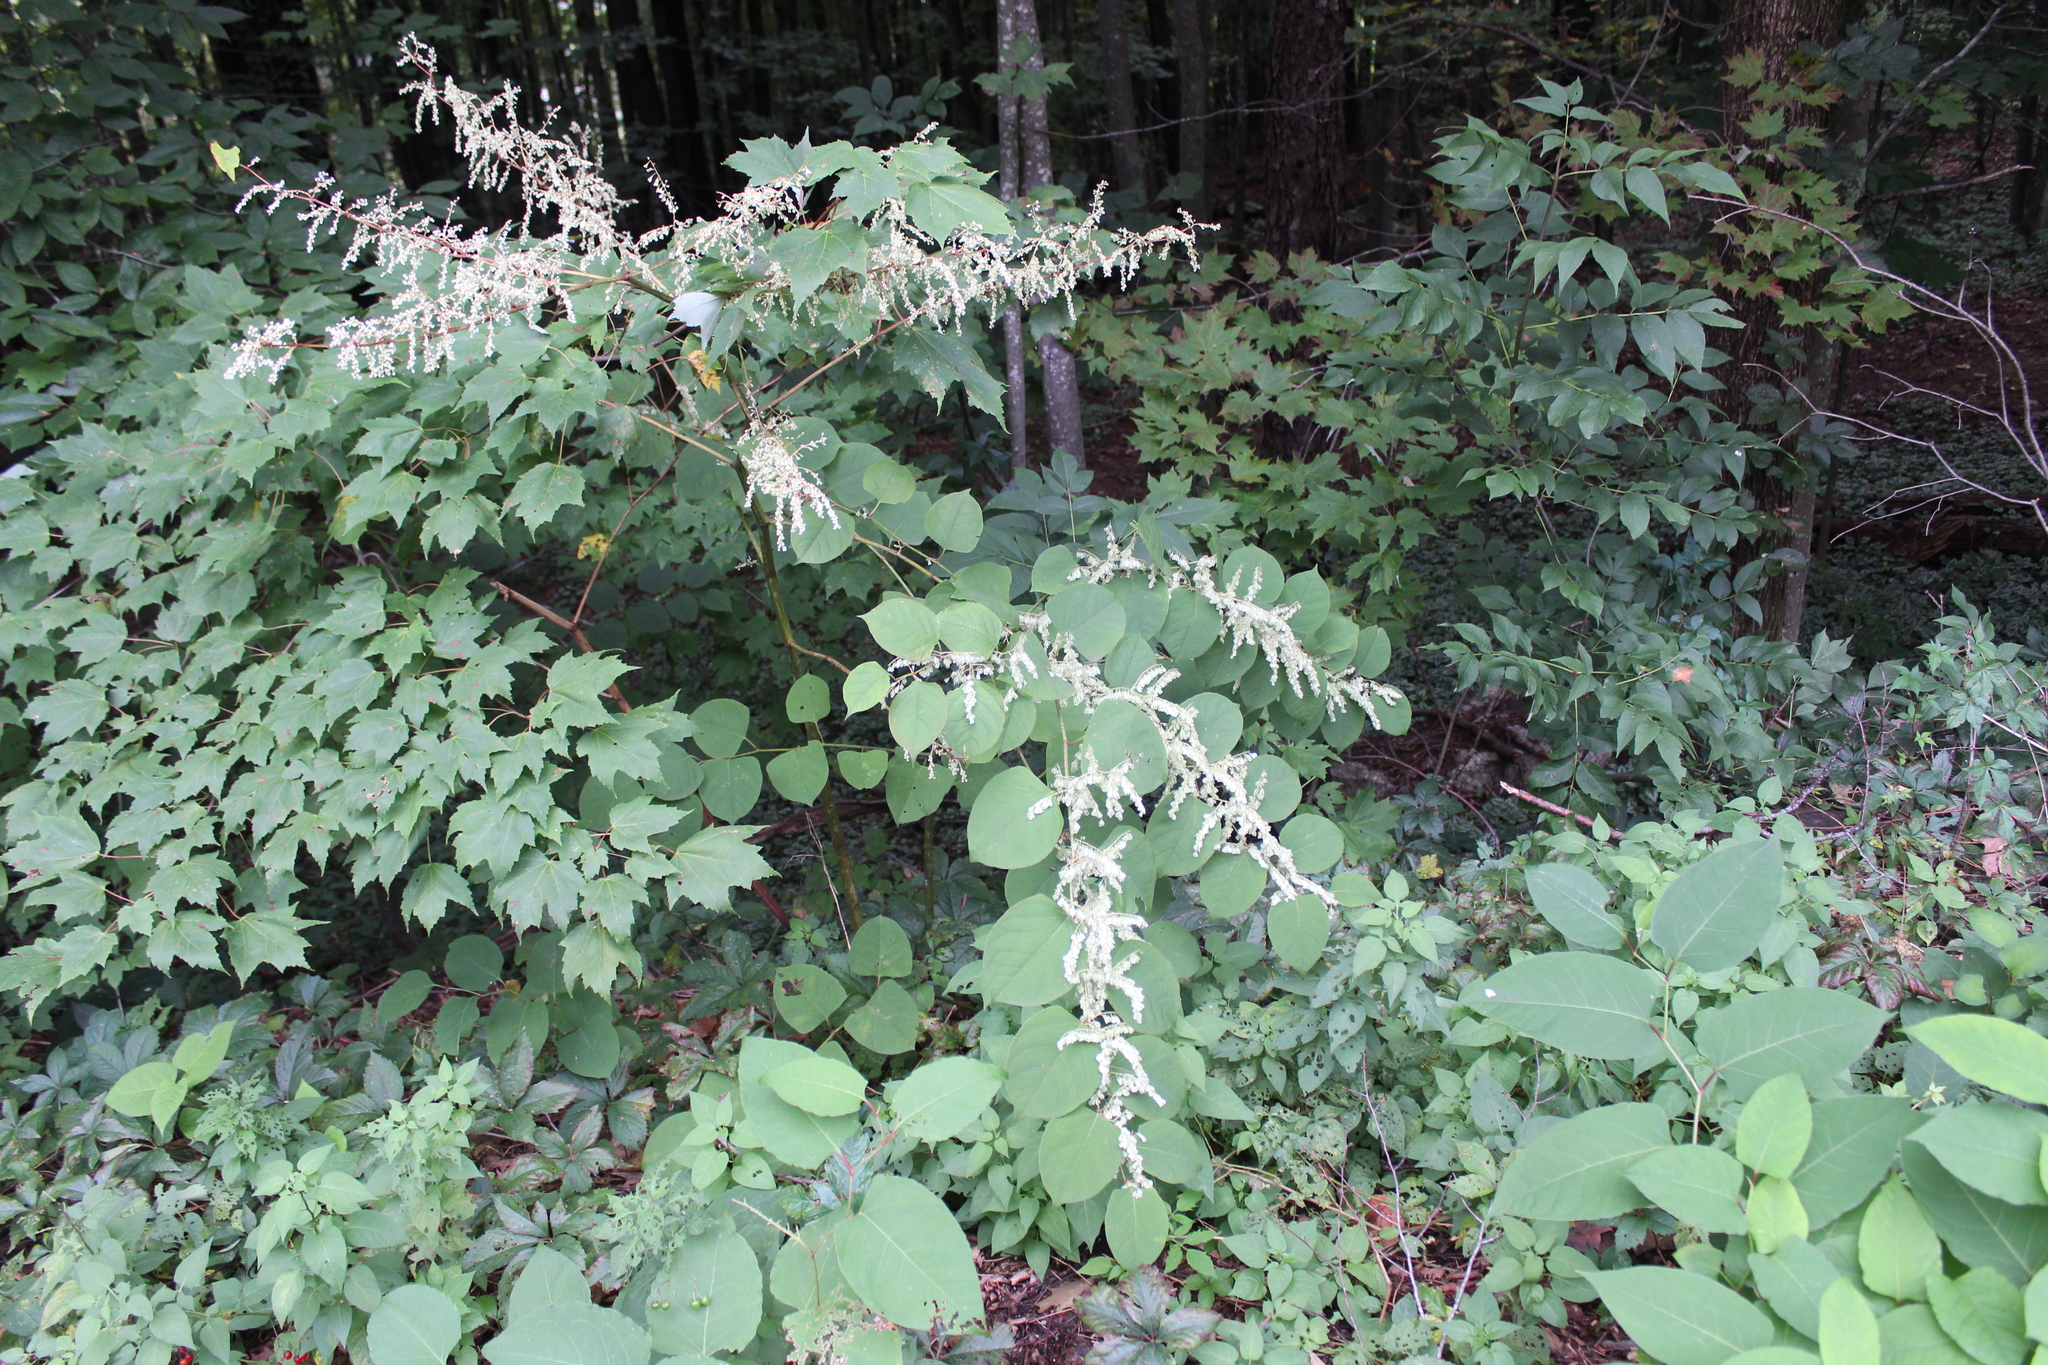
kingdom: Plantae
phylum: Tracheophyta
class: Magnoliopsida
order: Caryophyllales
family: Polygonaceae
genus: Reynoutria
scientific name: Reynoutria japonica
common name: Japanese knotweed
